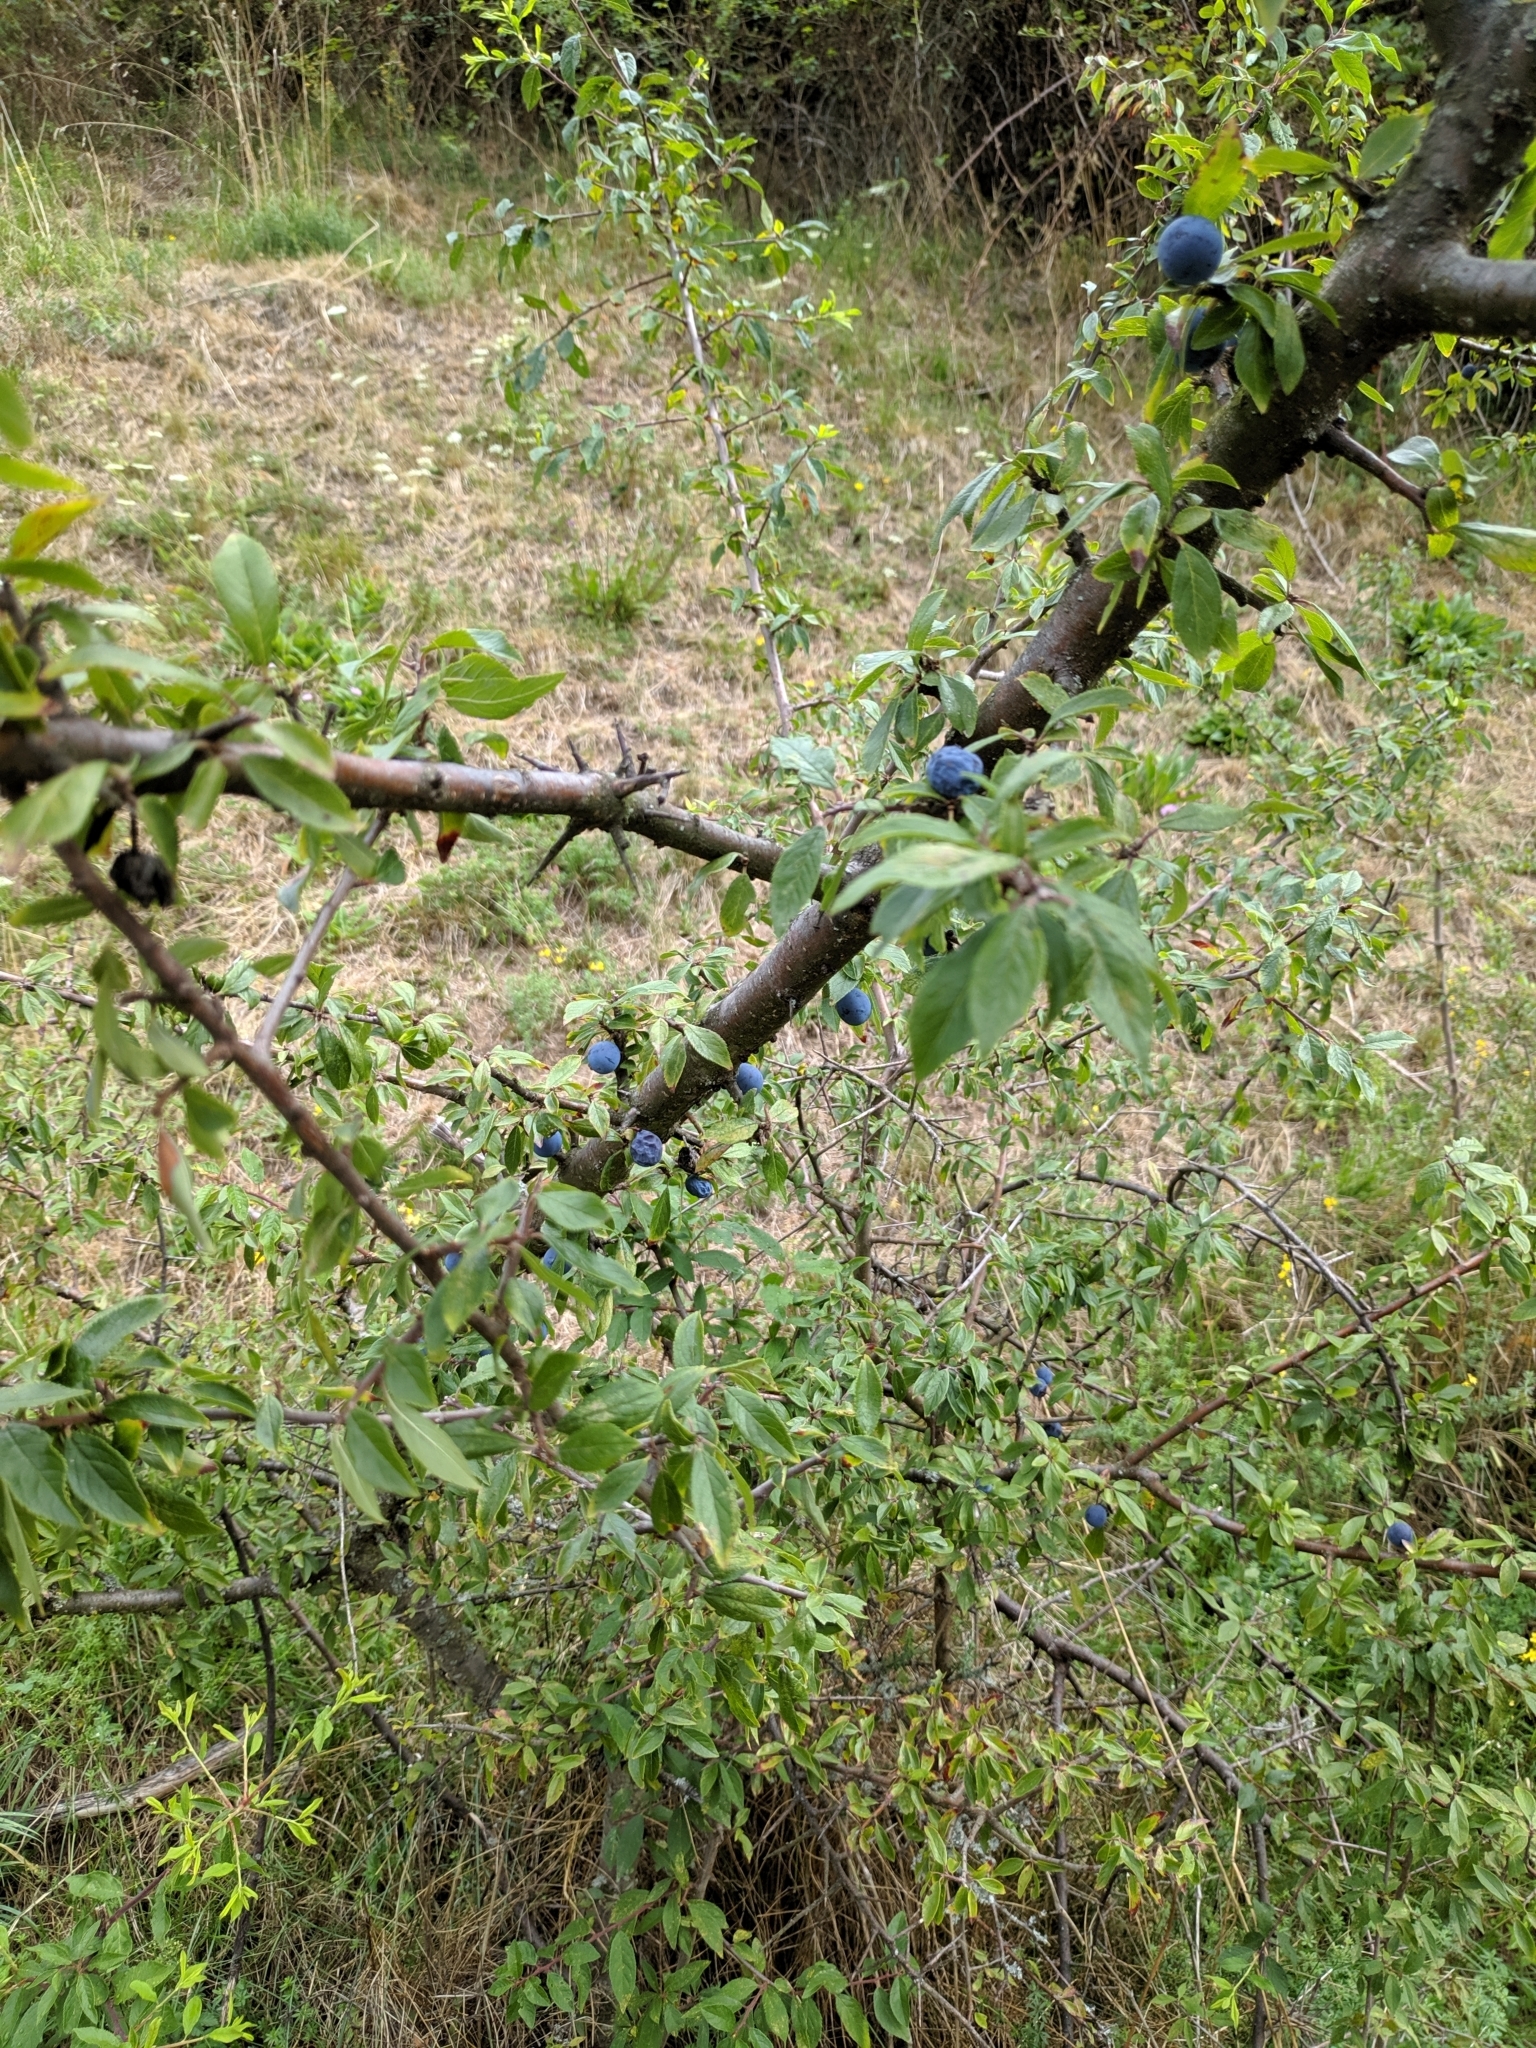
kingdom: Plantae
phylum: Tracheophyta
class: Magnoliopsida
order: Rosales
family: Rosaceae
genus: Prunus
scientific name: Prunus spinosa
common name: Blackthorn
